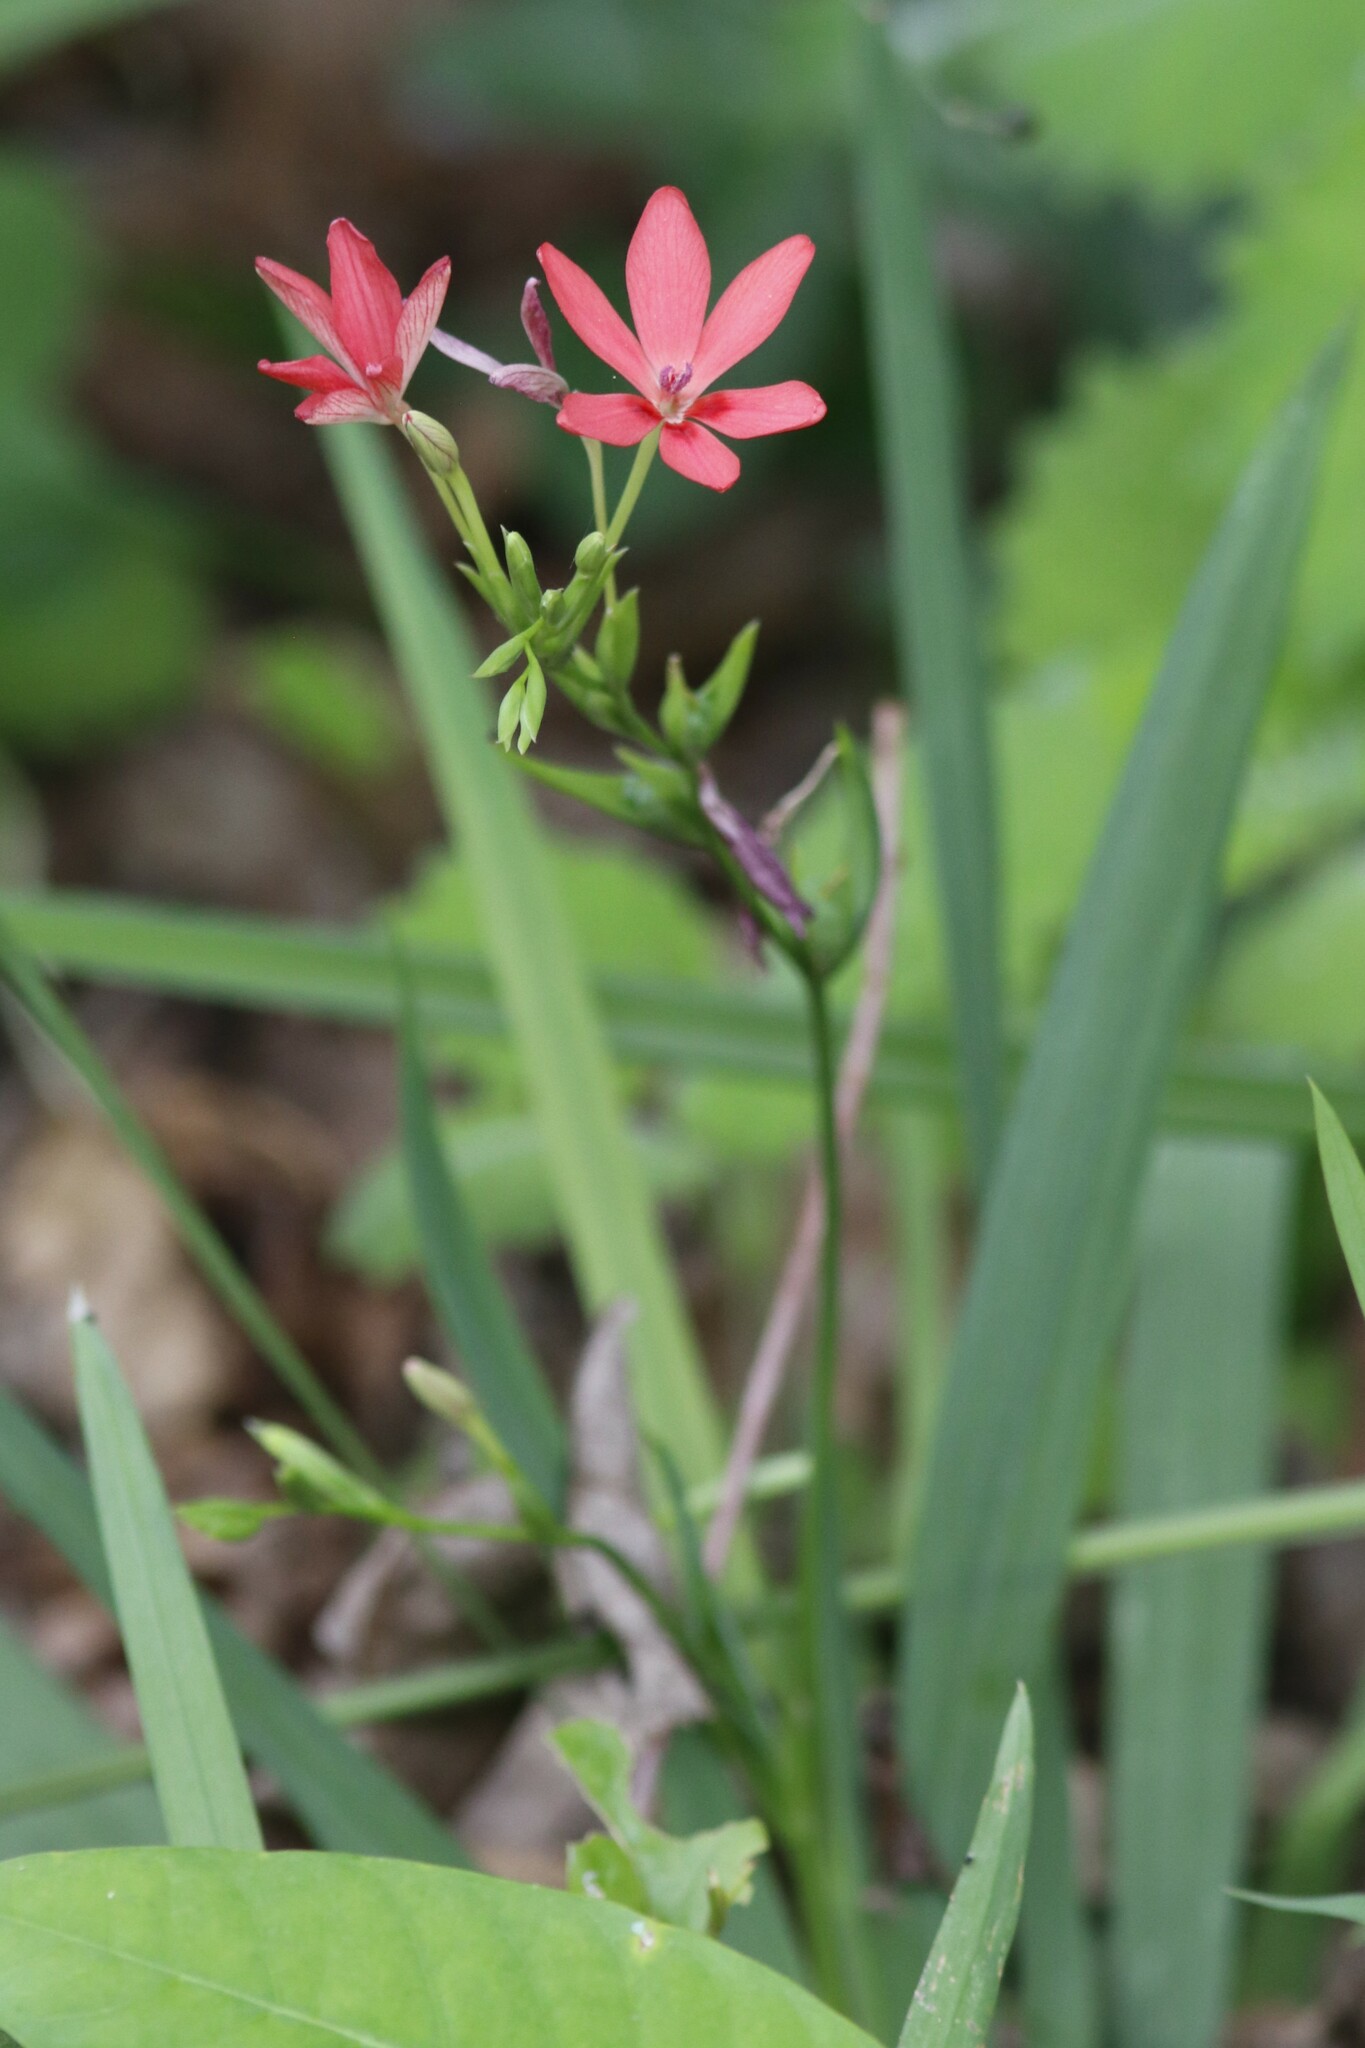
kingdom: Plantae
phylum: Tracheophyta
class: Liliopsida
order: Asparagales
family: Iridaceae
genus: Freesia
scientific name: Freesia laxa
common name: False freesia
